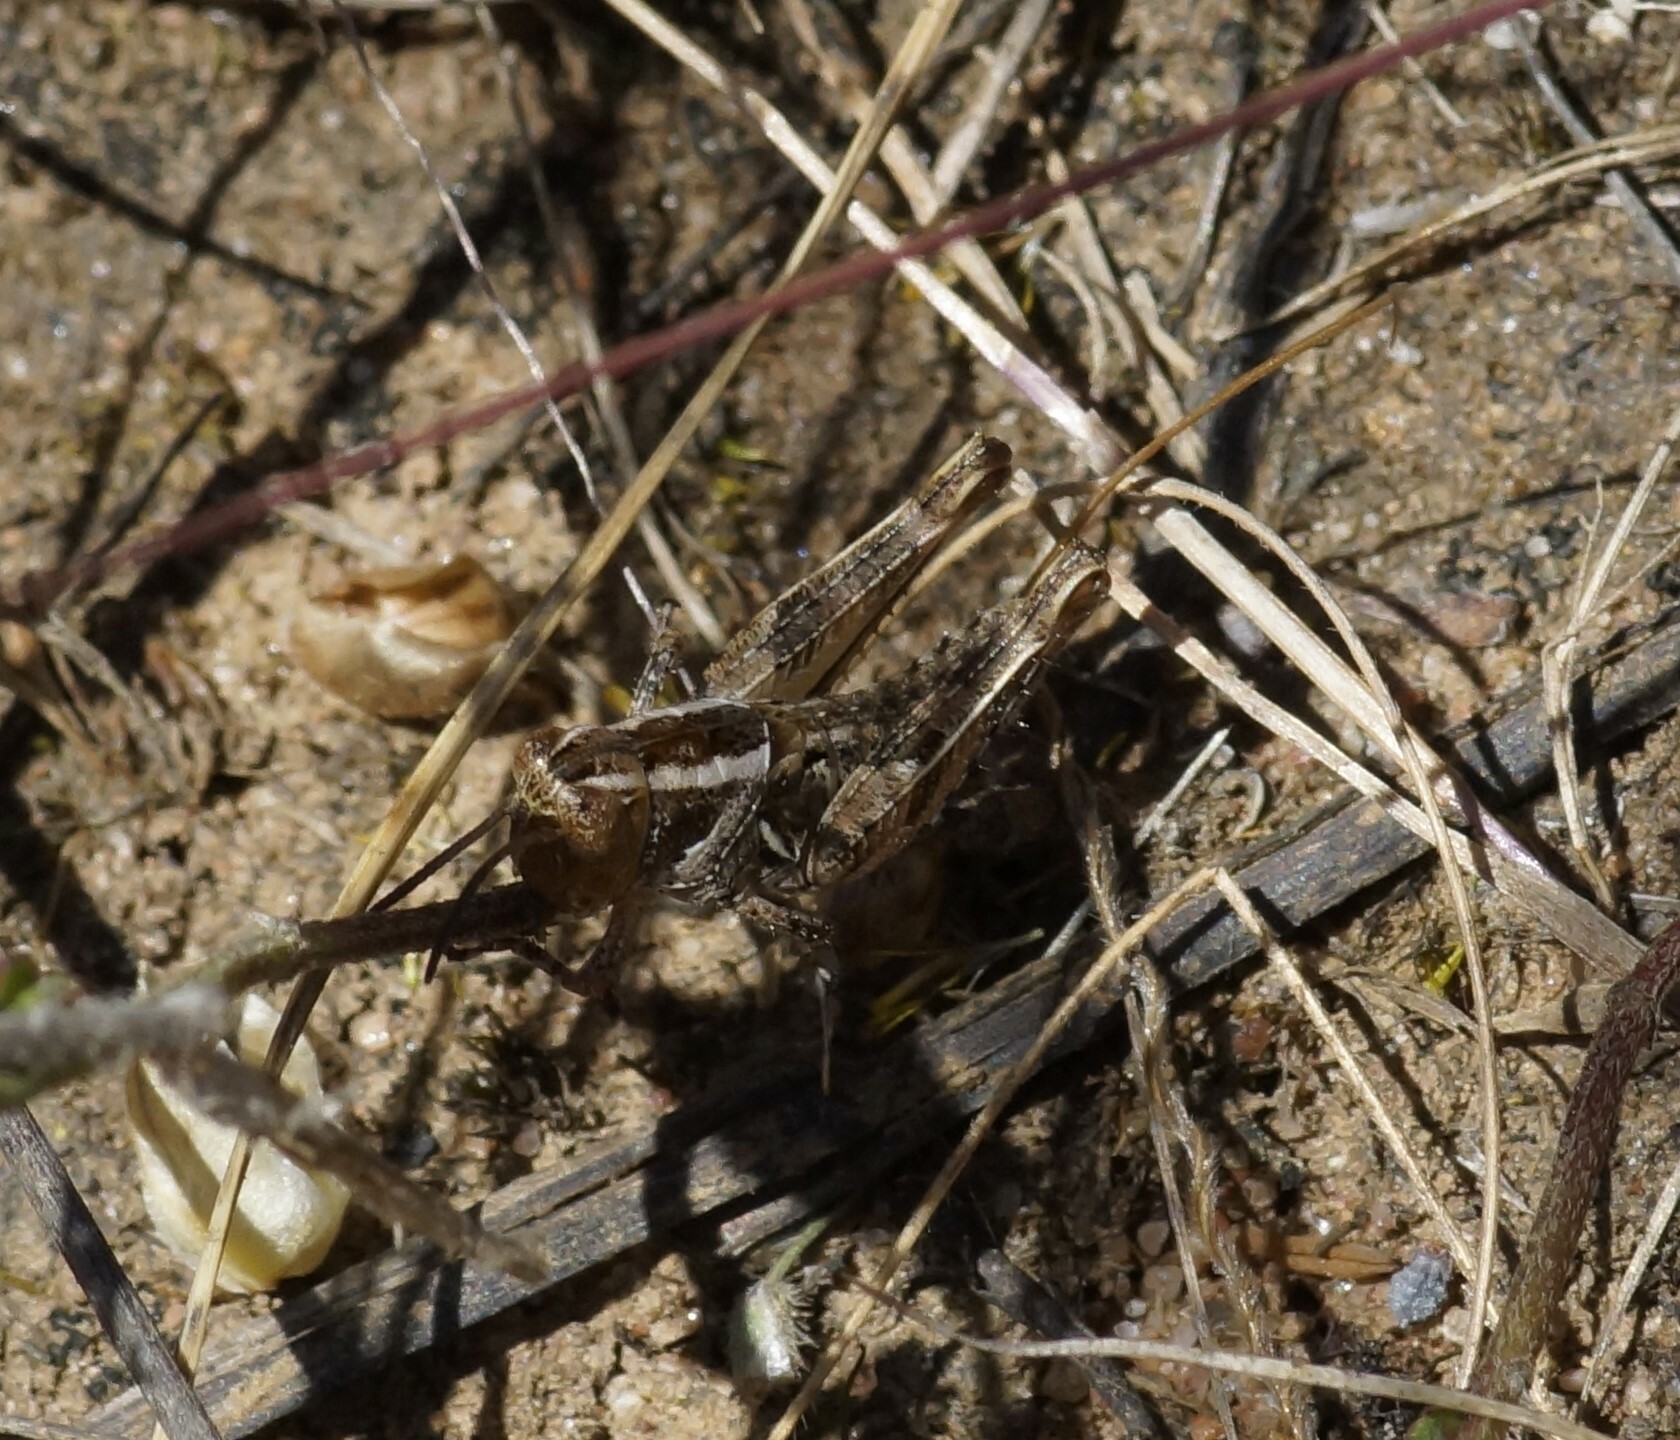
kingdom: Animalia
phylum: Arthropoda
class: Insecta
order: Orthoptera
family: Acrididae
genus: Brachyexarna
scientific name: Brachyexarna lobipennis
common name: Stripe-winged meadow grasshopper
